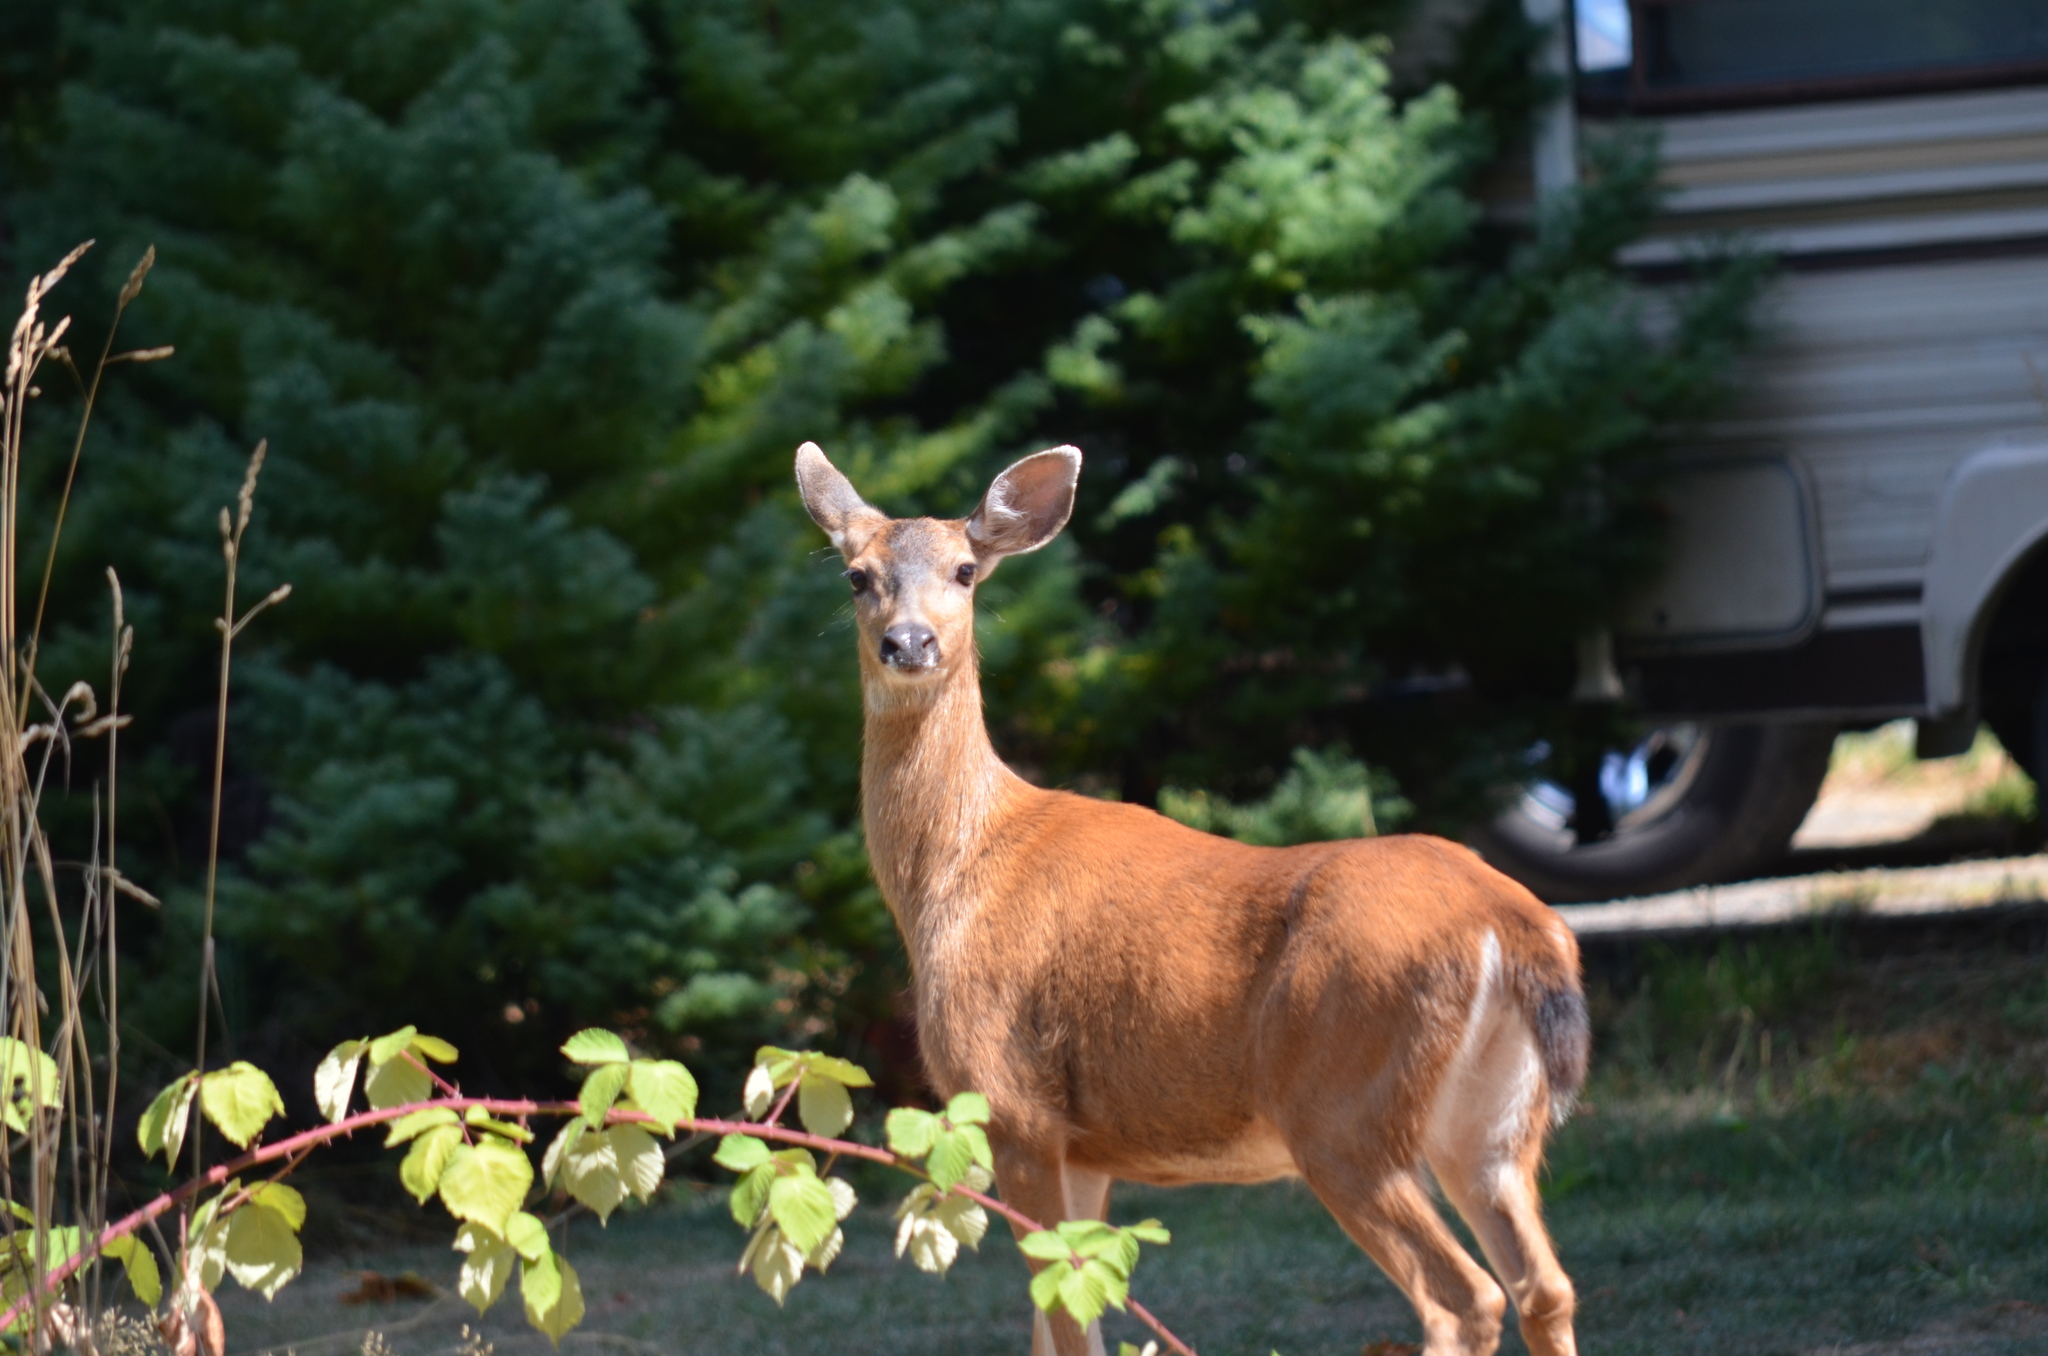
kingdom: Animalia
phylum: Chordata
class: Mammalia
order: Artiodactyla
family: Cervidae
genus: Odocoileus
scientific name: Odocoileus hemionus
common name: Mule deer
